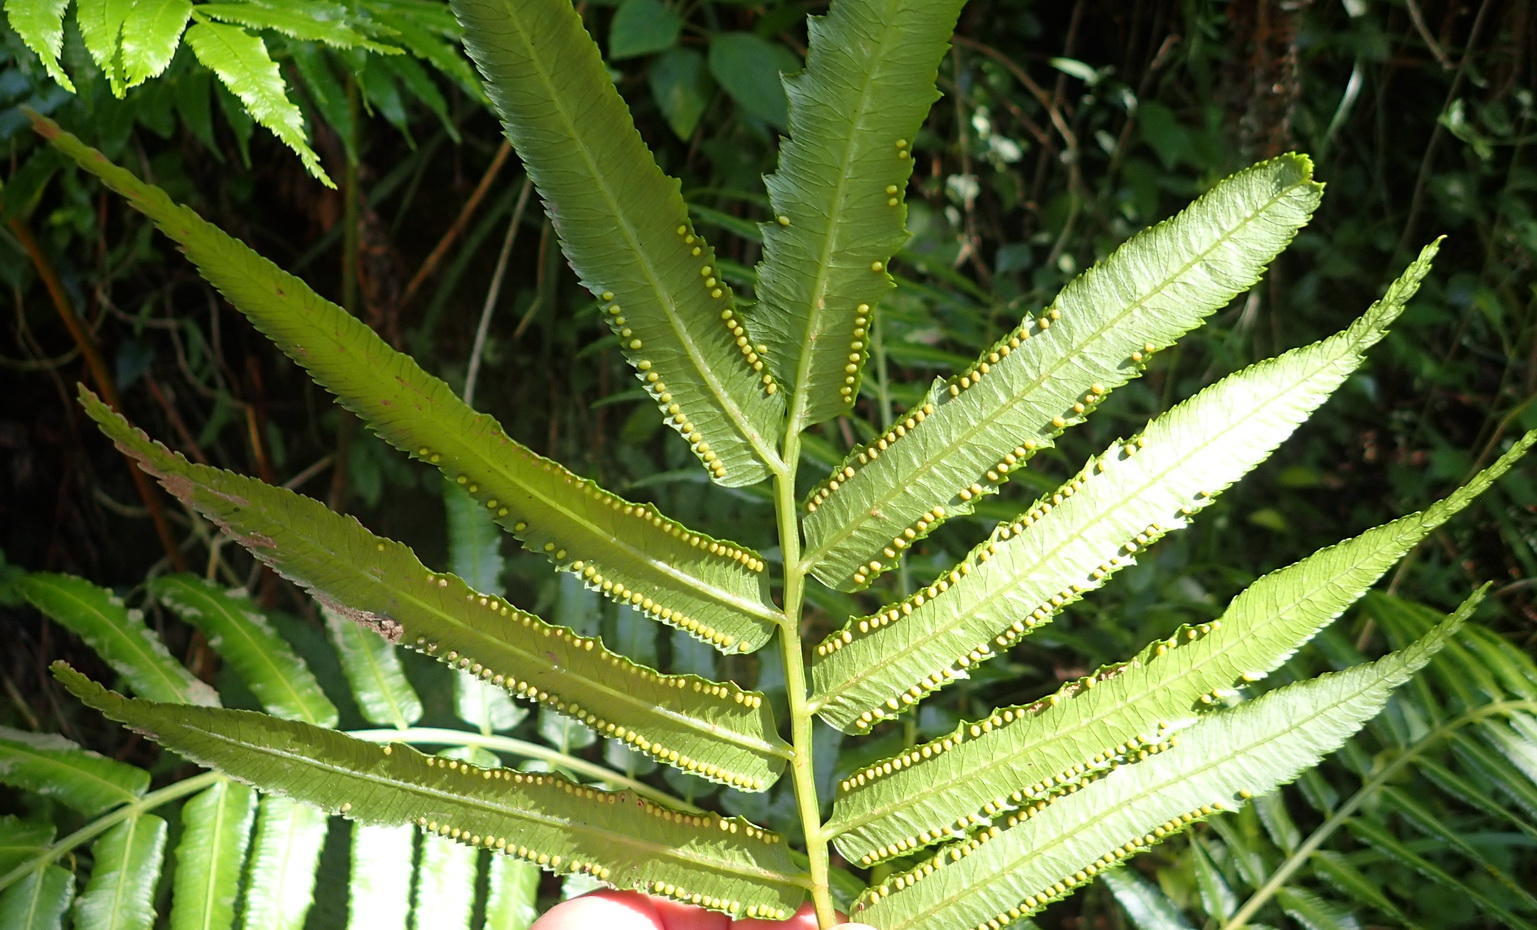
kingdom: Plantae
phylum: Tracheophyta
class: Polypodiopsida
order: Marattiales
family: Marattiaceae
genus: Ptisana
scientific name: Ptisana salicifolia
